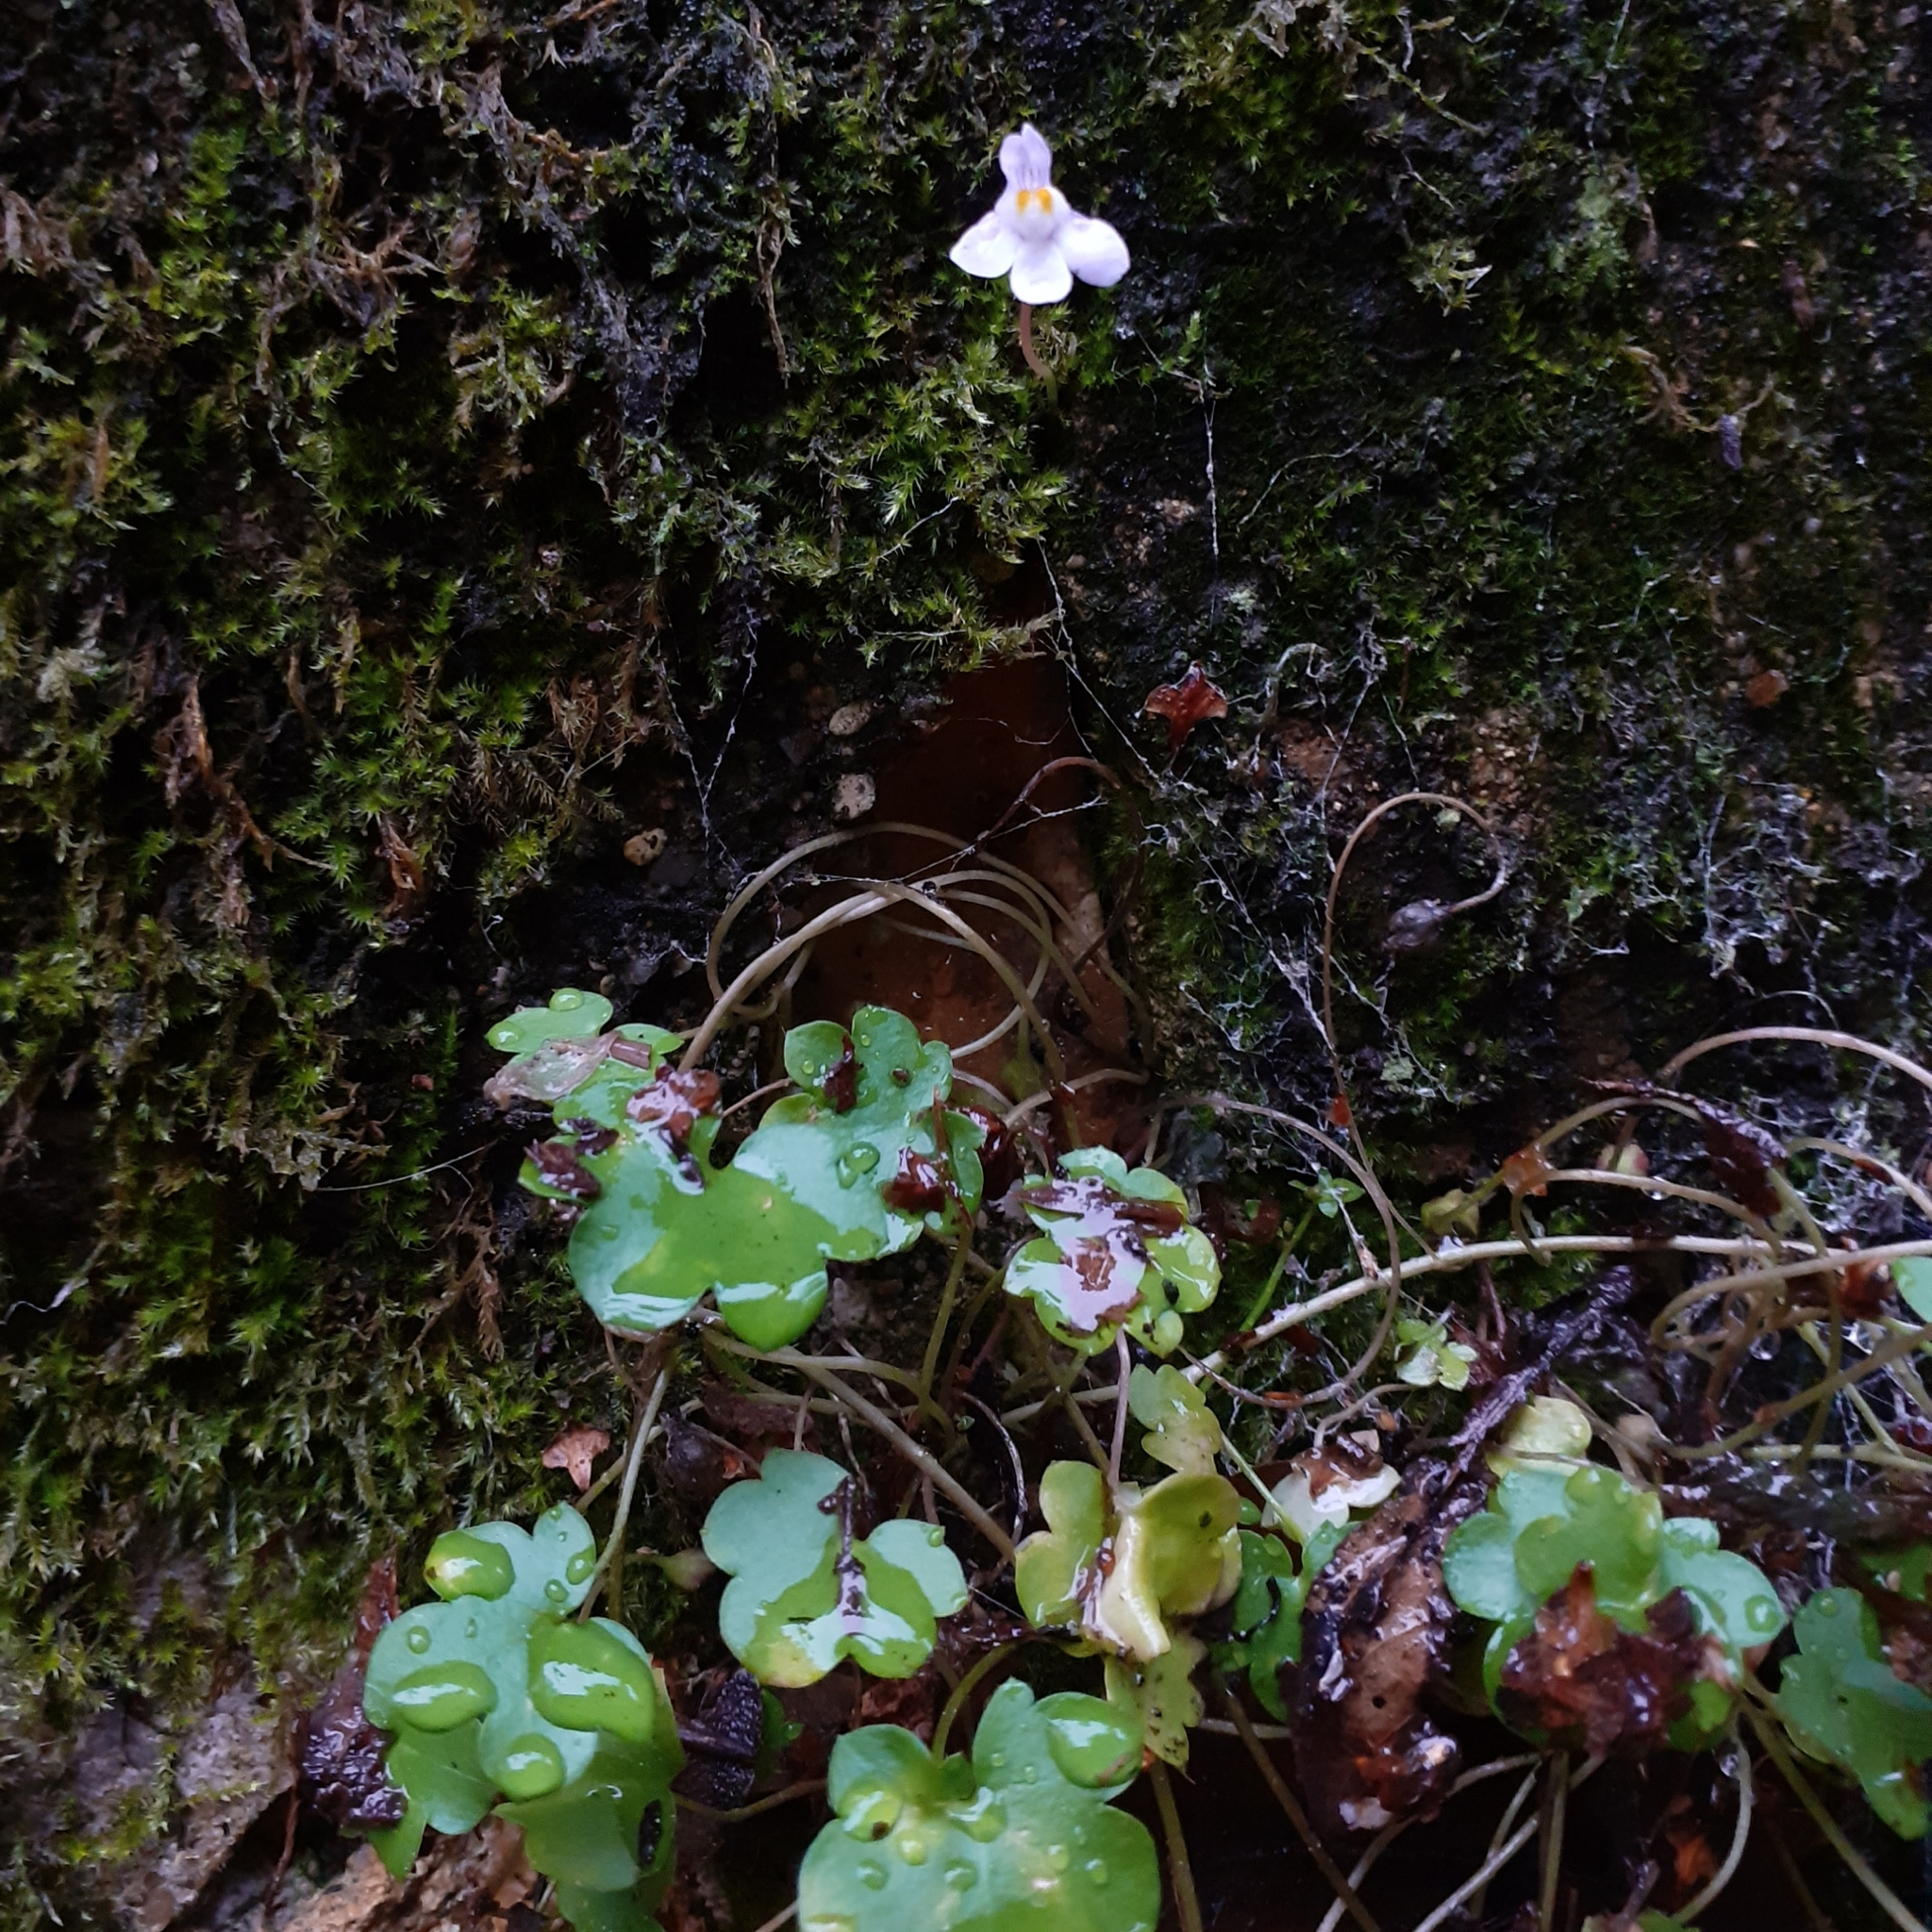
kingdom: Plantae
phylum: Tracheophyta
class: Magnoliopsida
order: Lamiales
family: Plantaginaceae
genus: Cymbalaria
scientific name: Cymbalaria muralis
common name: Ivy-leaved toadflax
